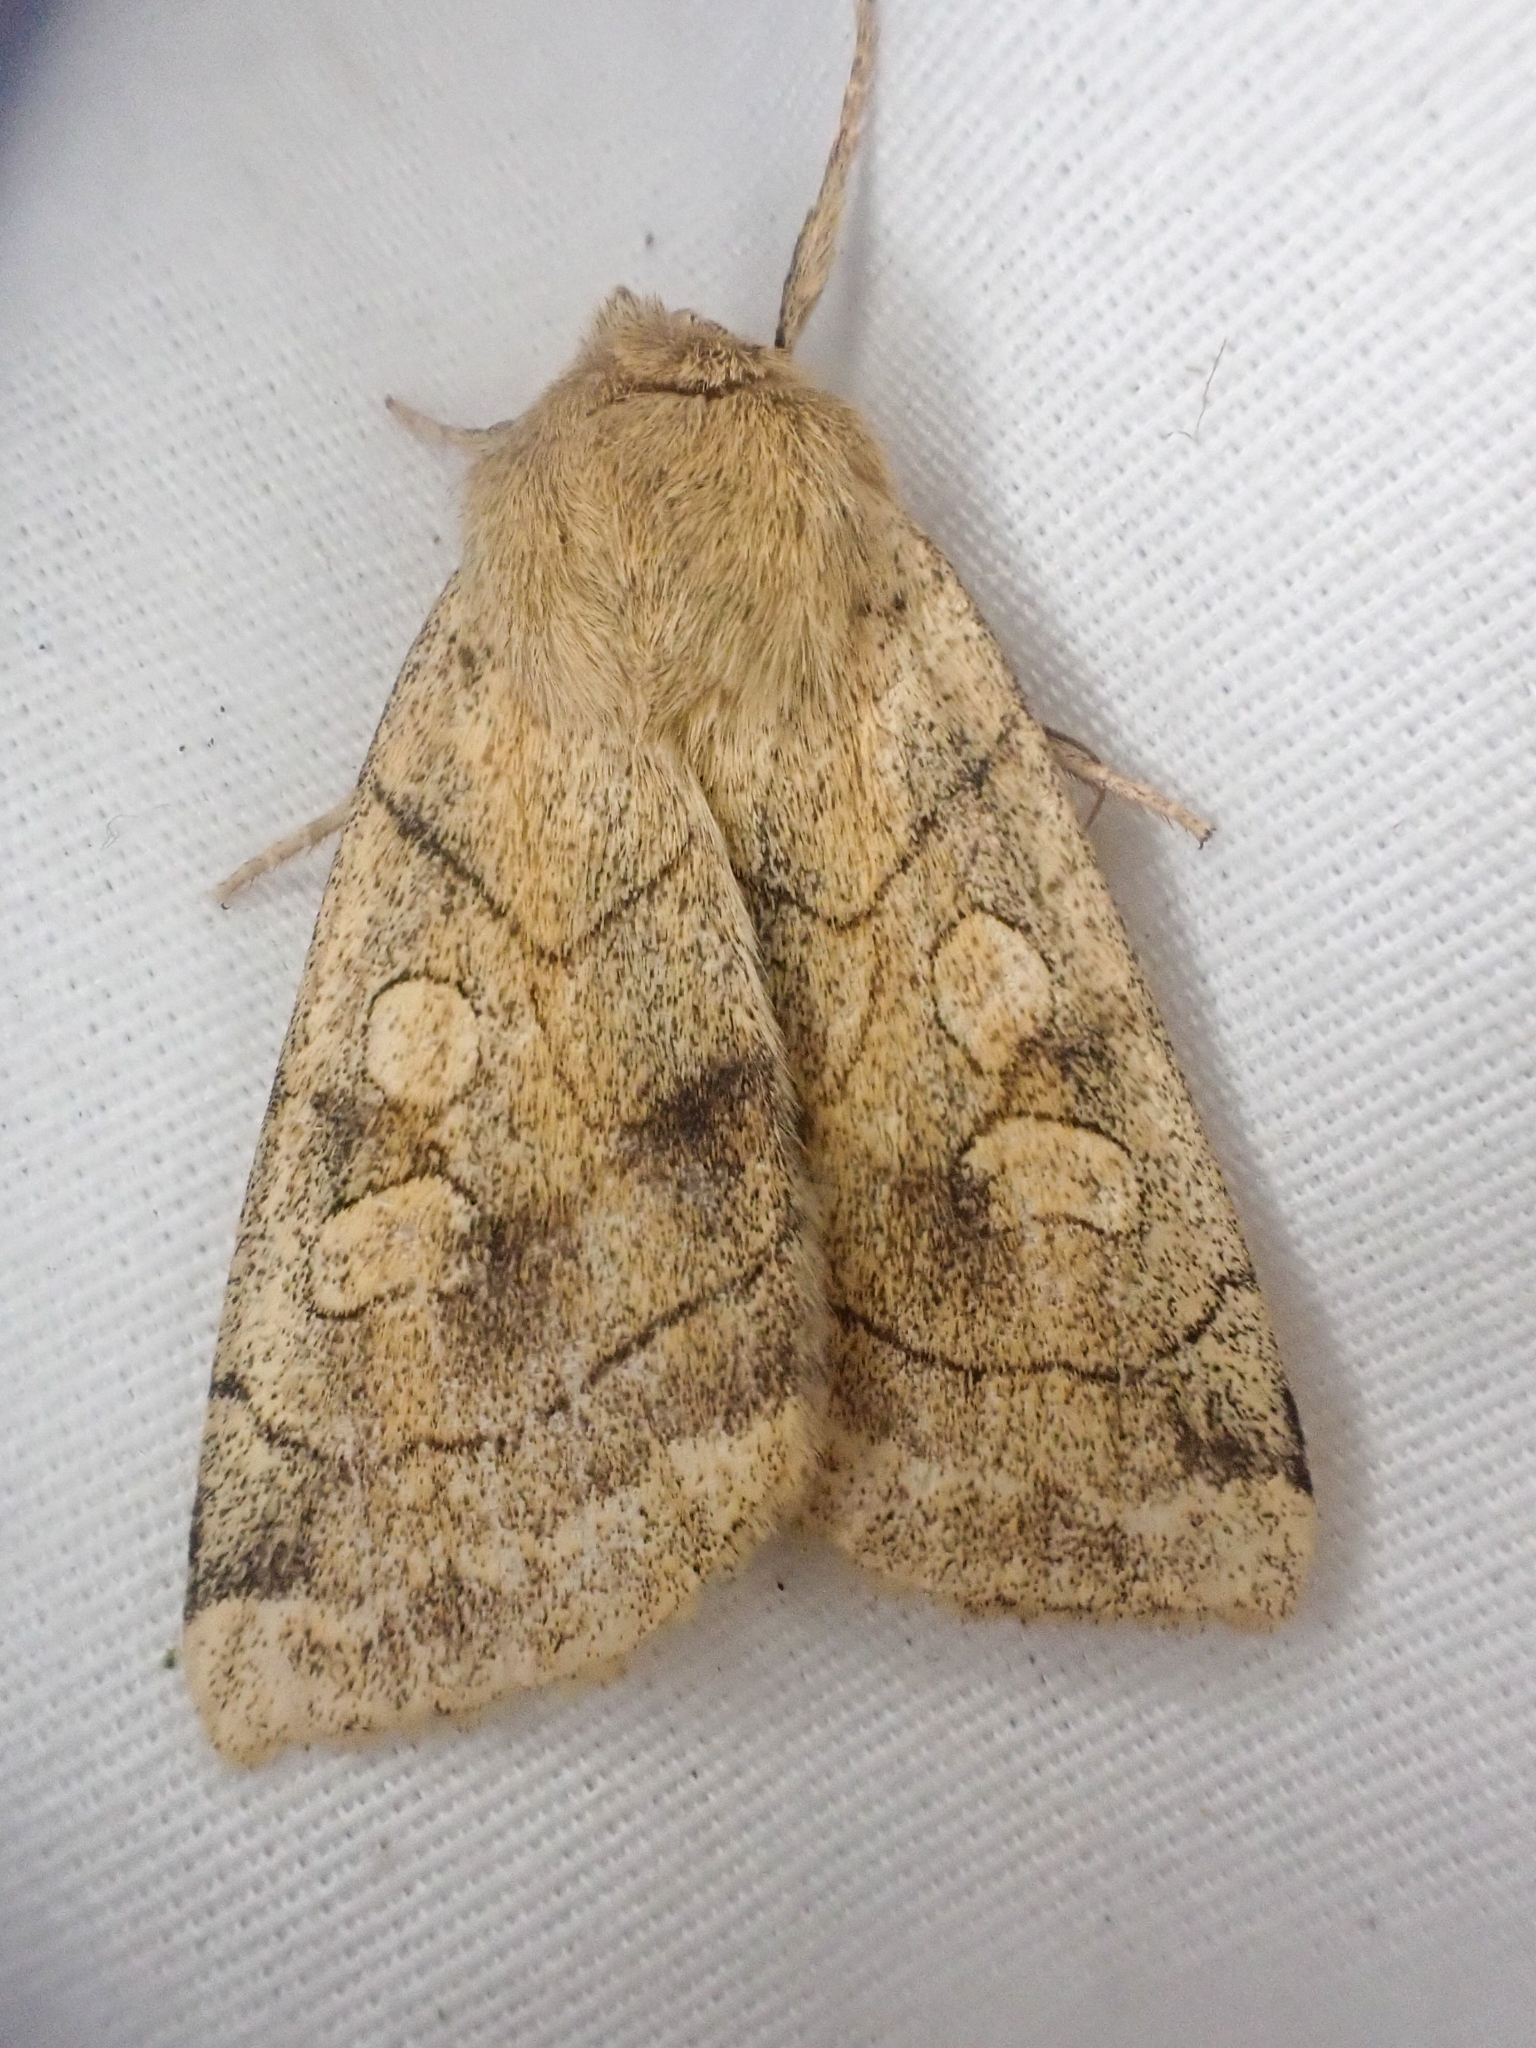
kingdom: Animalia
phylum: Arthropoda
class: Insecta
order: Lepidoptera
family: Noctuidae
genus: Enargia
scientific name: Enargia decolor
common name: Aspen twoleaf tier moth
